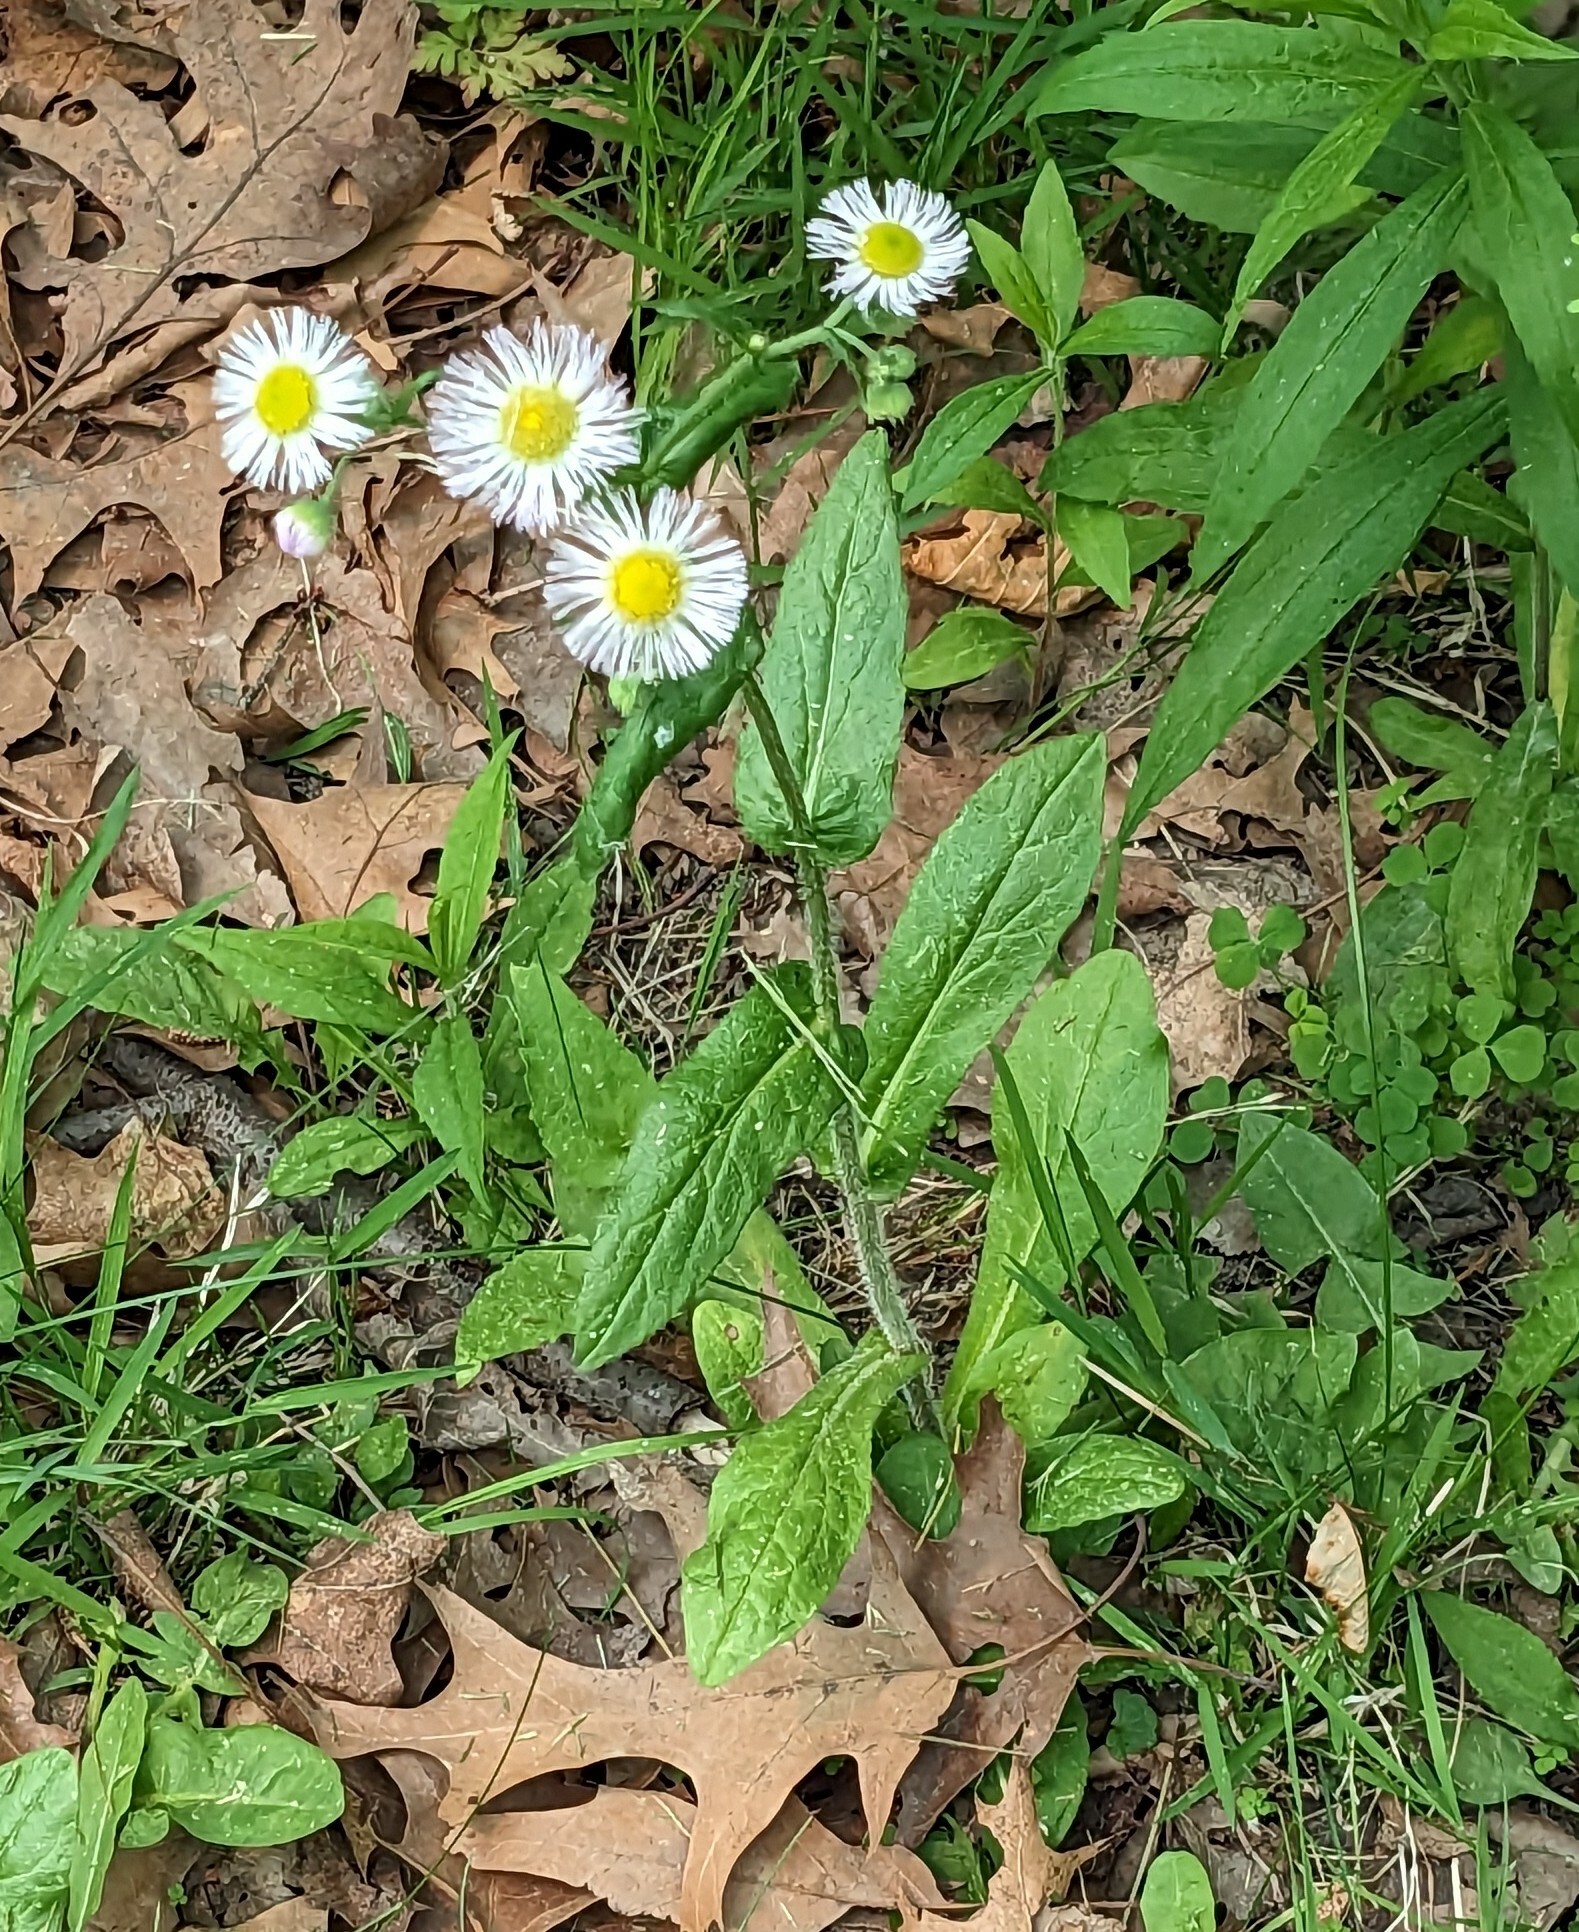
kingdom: Plantae
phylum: Tracheophyta
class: Magnoliopsida
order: Asterales
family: Asteraceae
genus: Erigeron
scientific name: Erigeron philadelphicus
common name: Robin's-plantain
